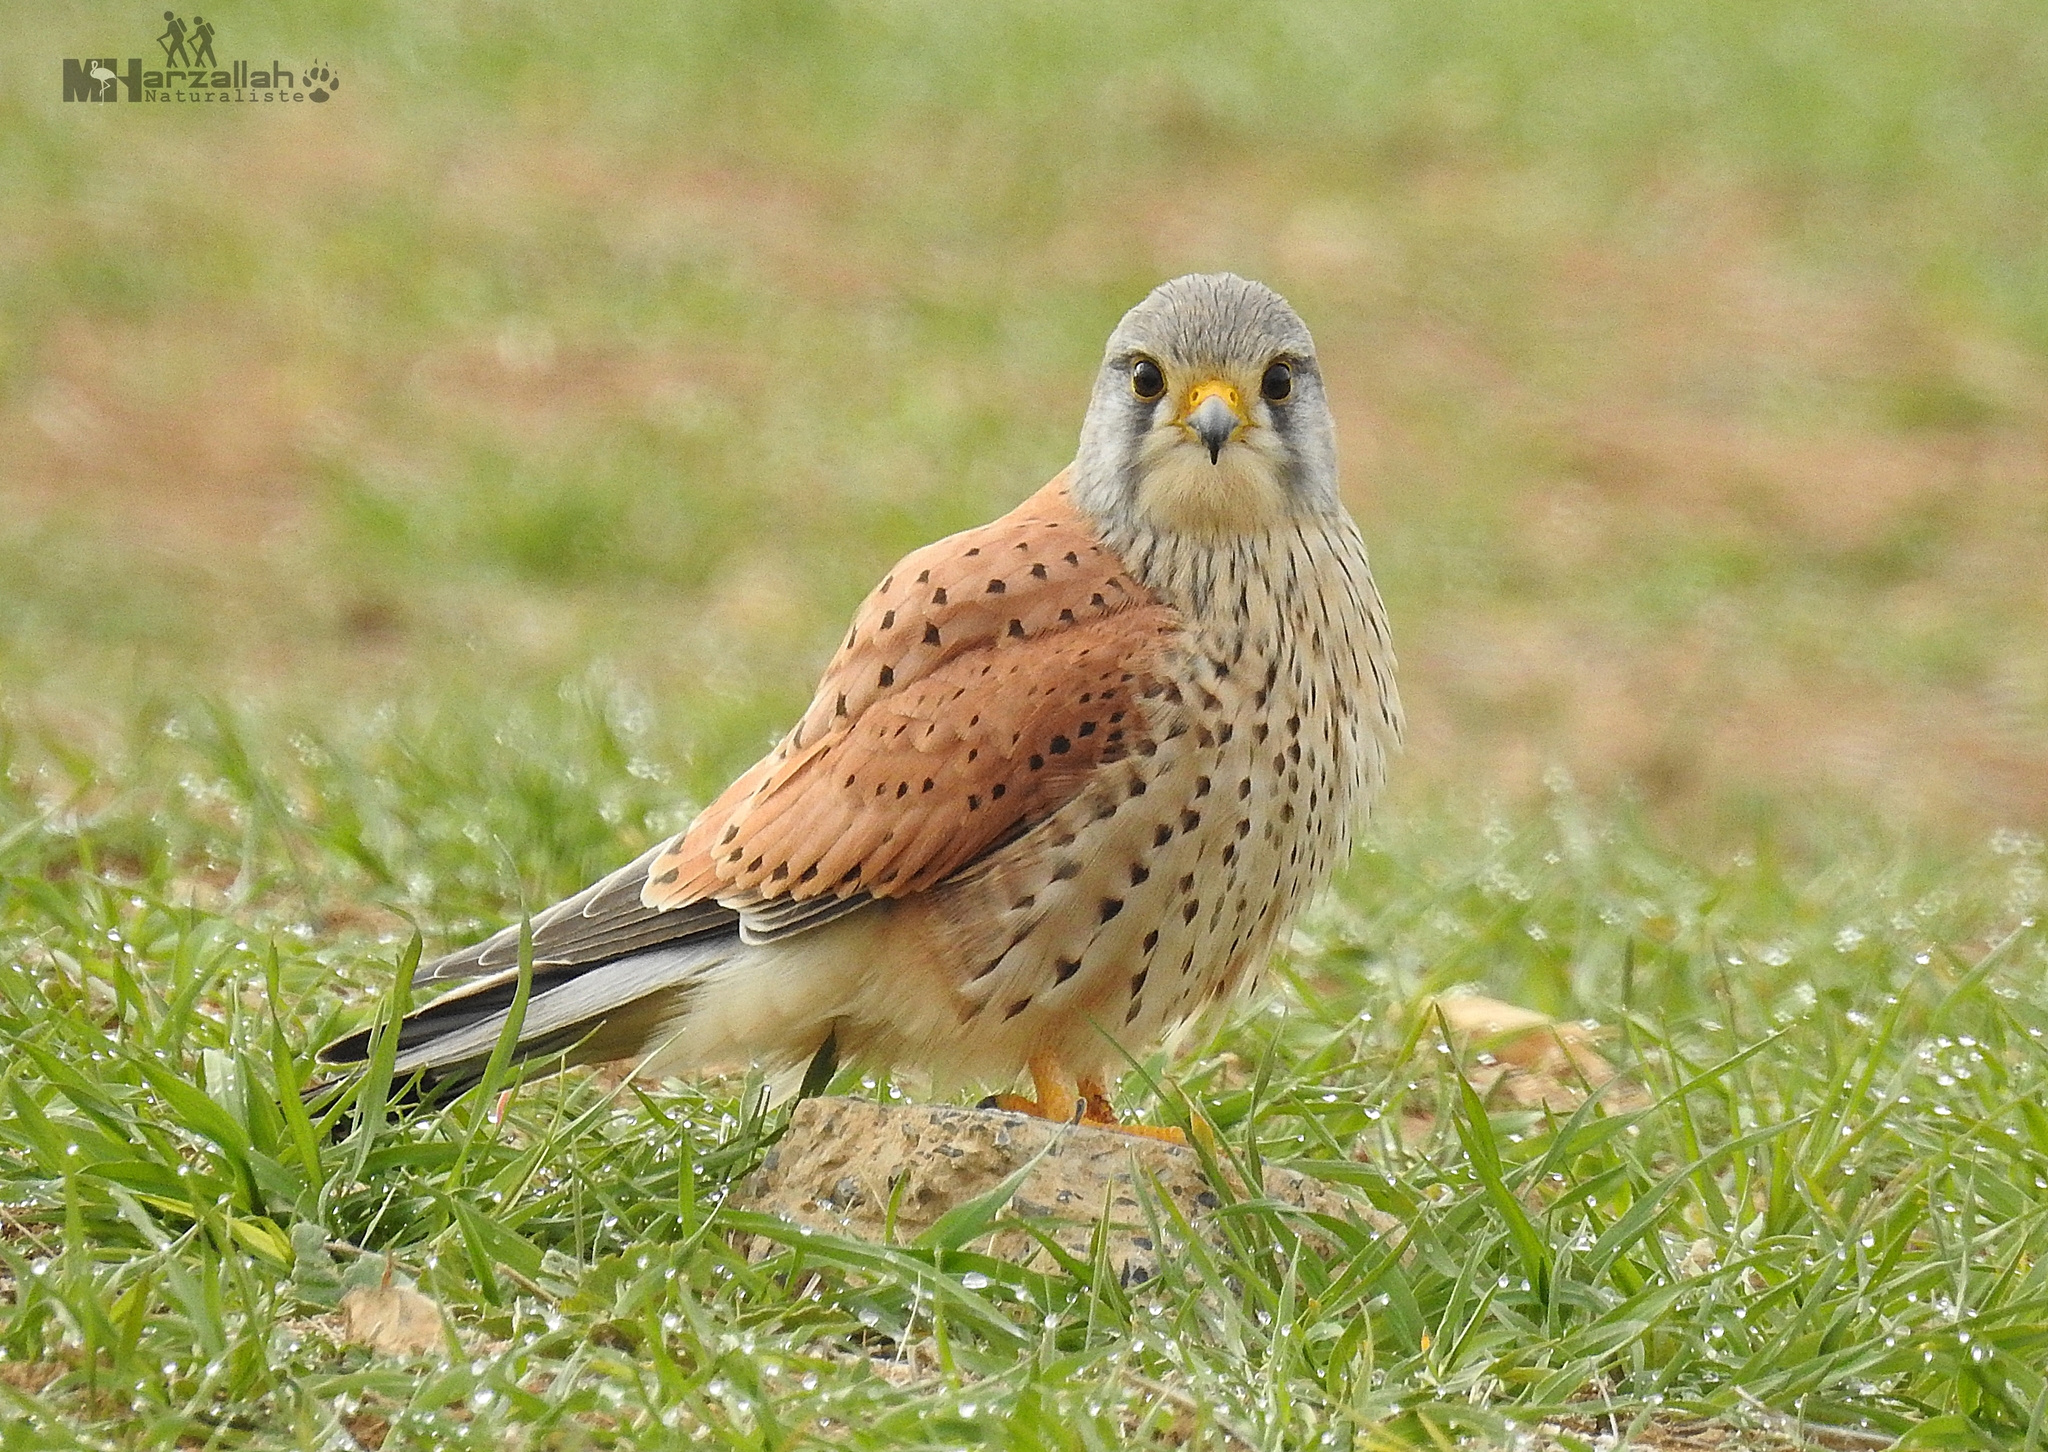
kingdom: Animalia
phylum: Chordata
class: Aves
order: Falconiformes
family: Falconidae
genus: Falco
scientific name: Falco tinnunculus
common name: Common kestrel
